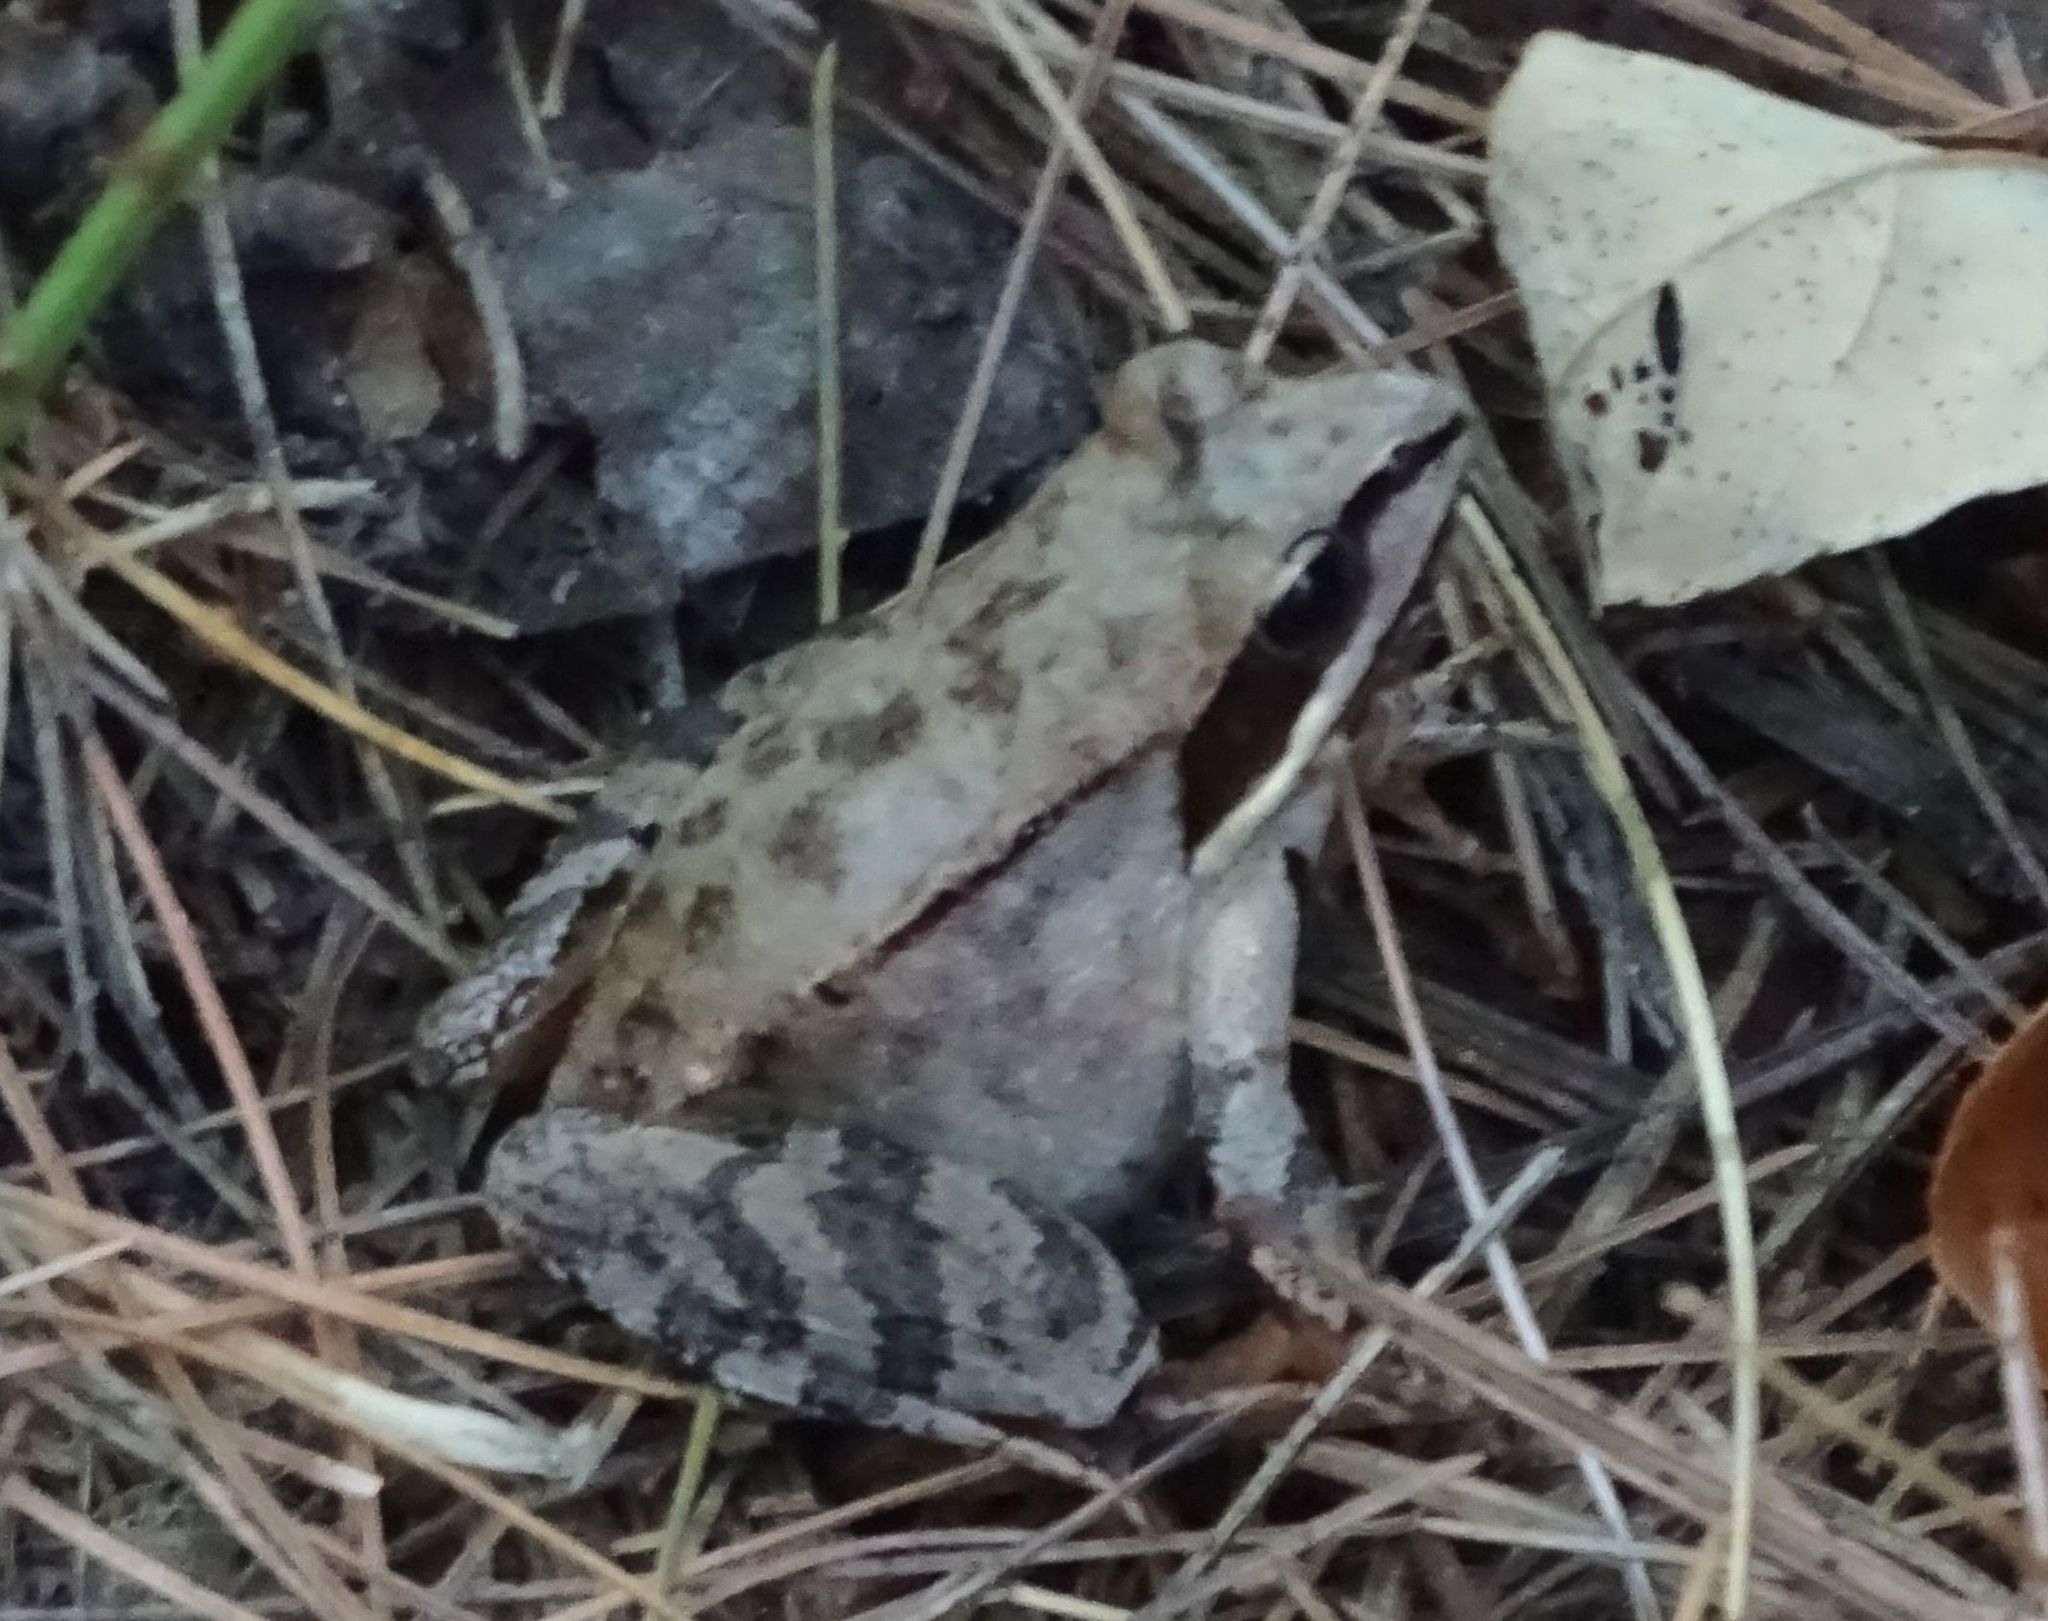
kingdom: Animalia
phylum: Chordata
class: Amphibia
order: Anura
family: Ranidae
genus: Lithobates
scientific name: Lithobates sylvaticus
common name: Wood frog
